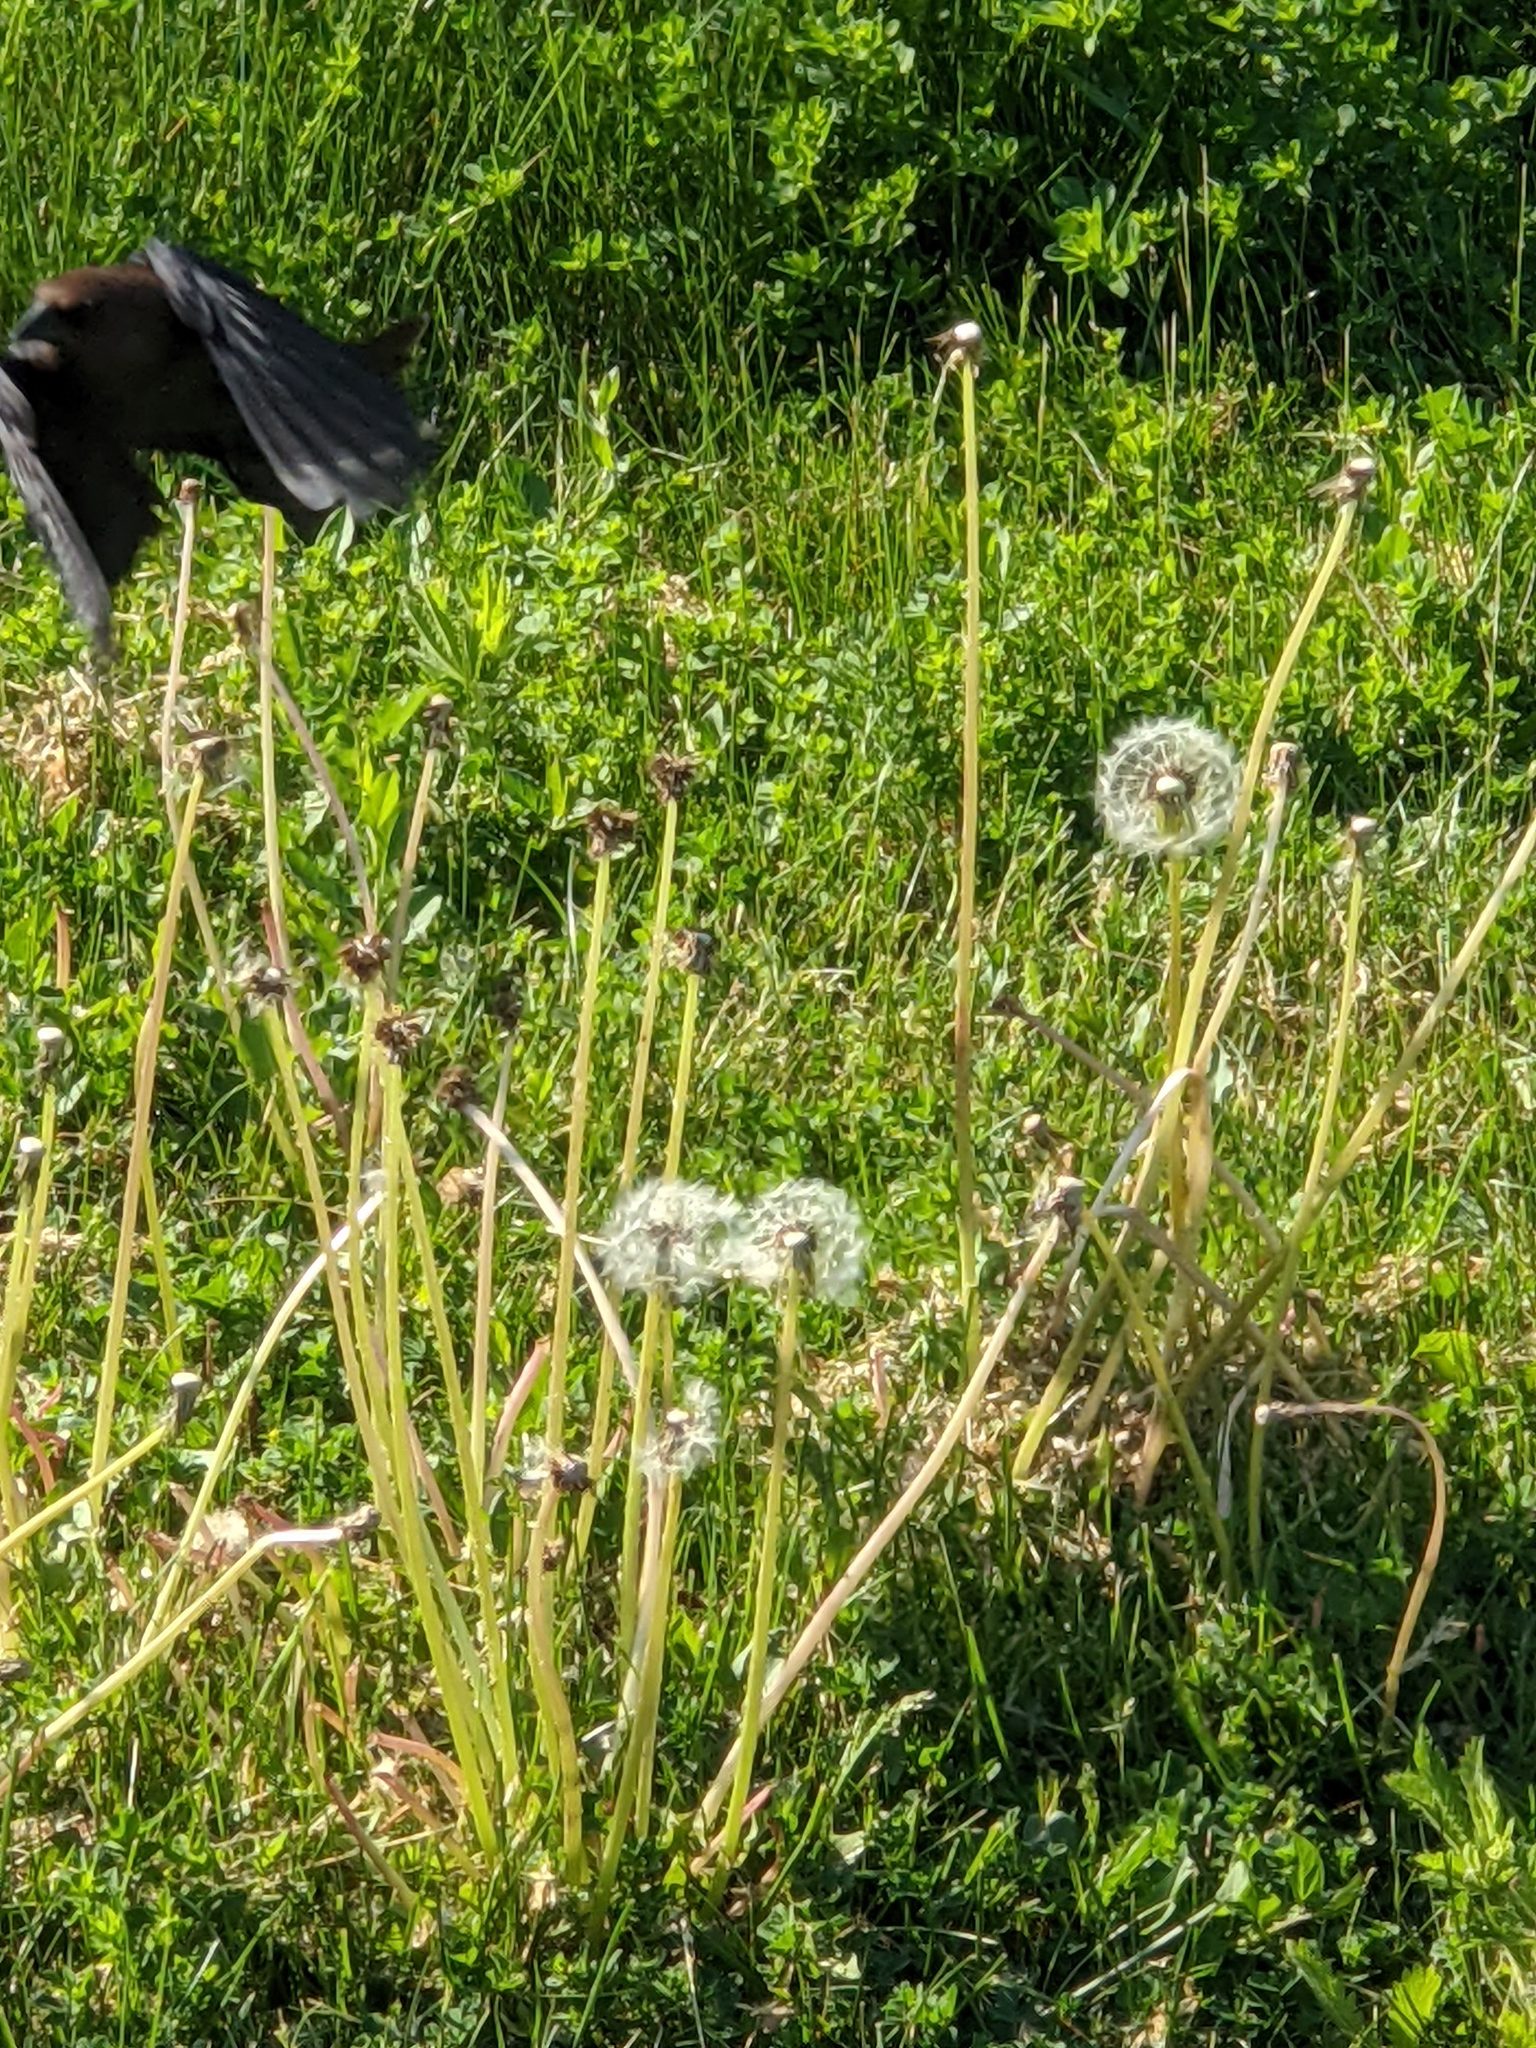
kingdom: Animalia
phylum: Chordata
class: Aves
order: Passeriformes
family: Icteridae
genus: Molothrus
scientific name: Molothrus ater
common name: Brown-headed cowbird
